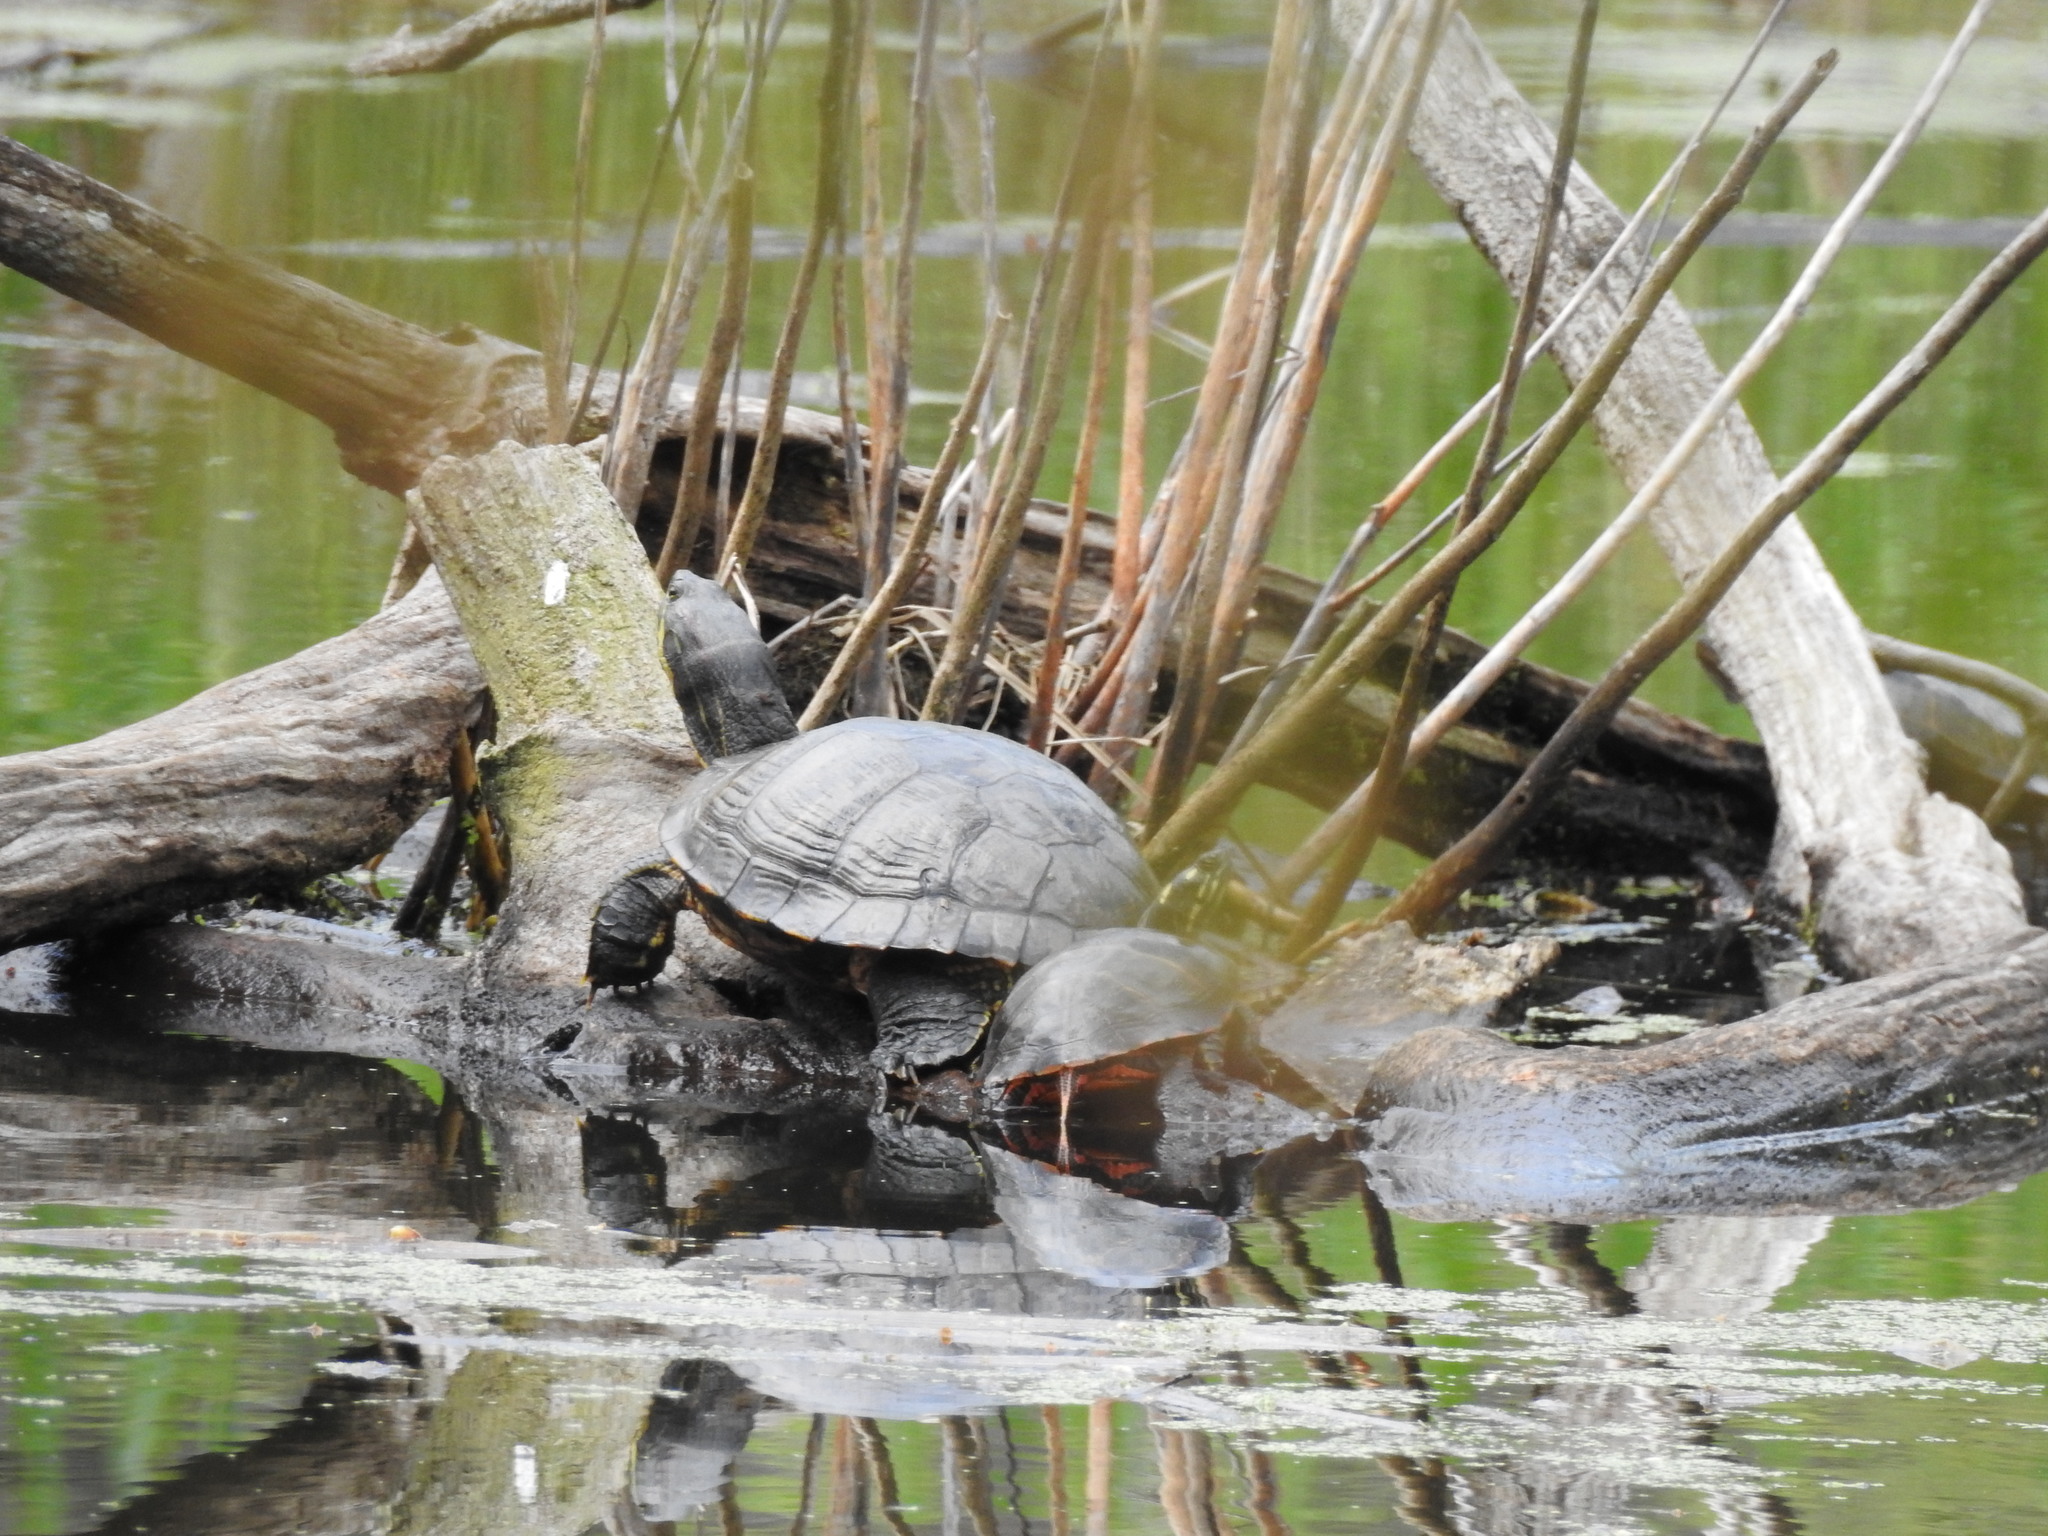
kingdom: Animalia
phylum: Chordata
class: Testudines
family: Emydidae
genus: Pseudemys
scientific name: Pseudemys rubriventris
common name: American red-bellied turtle
